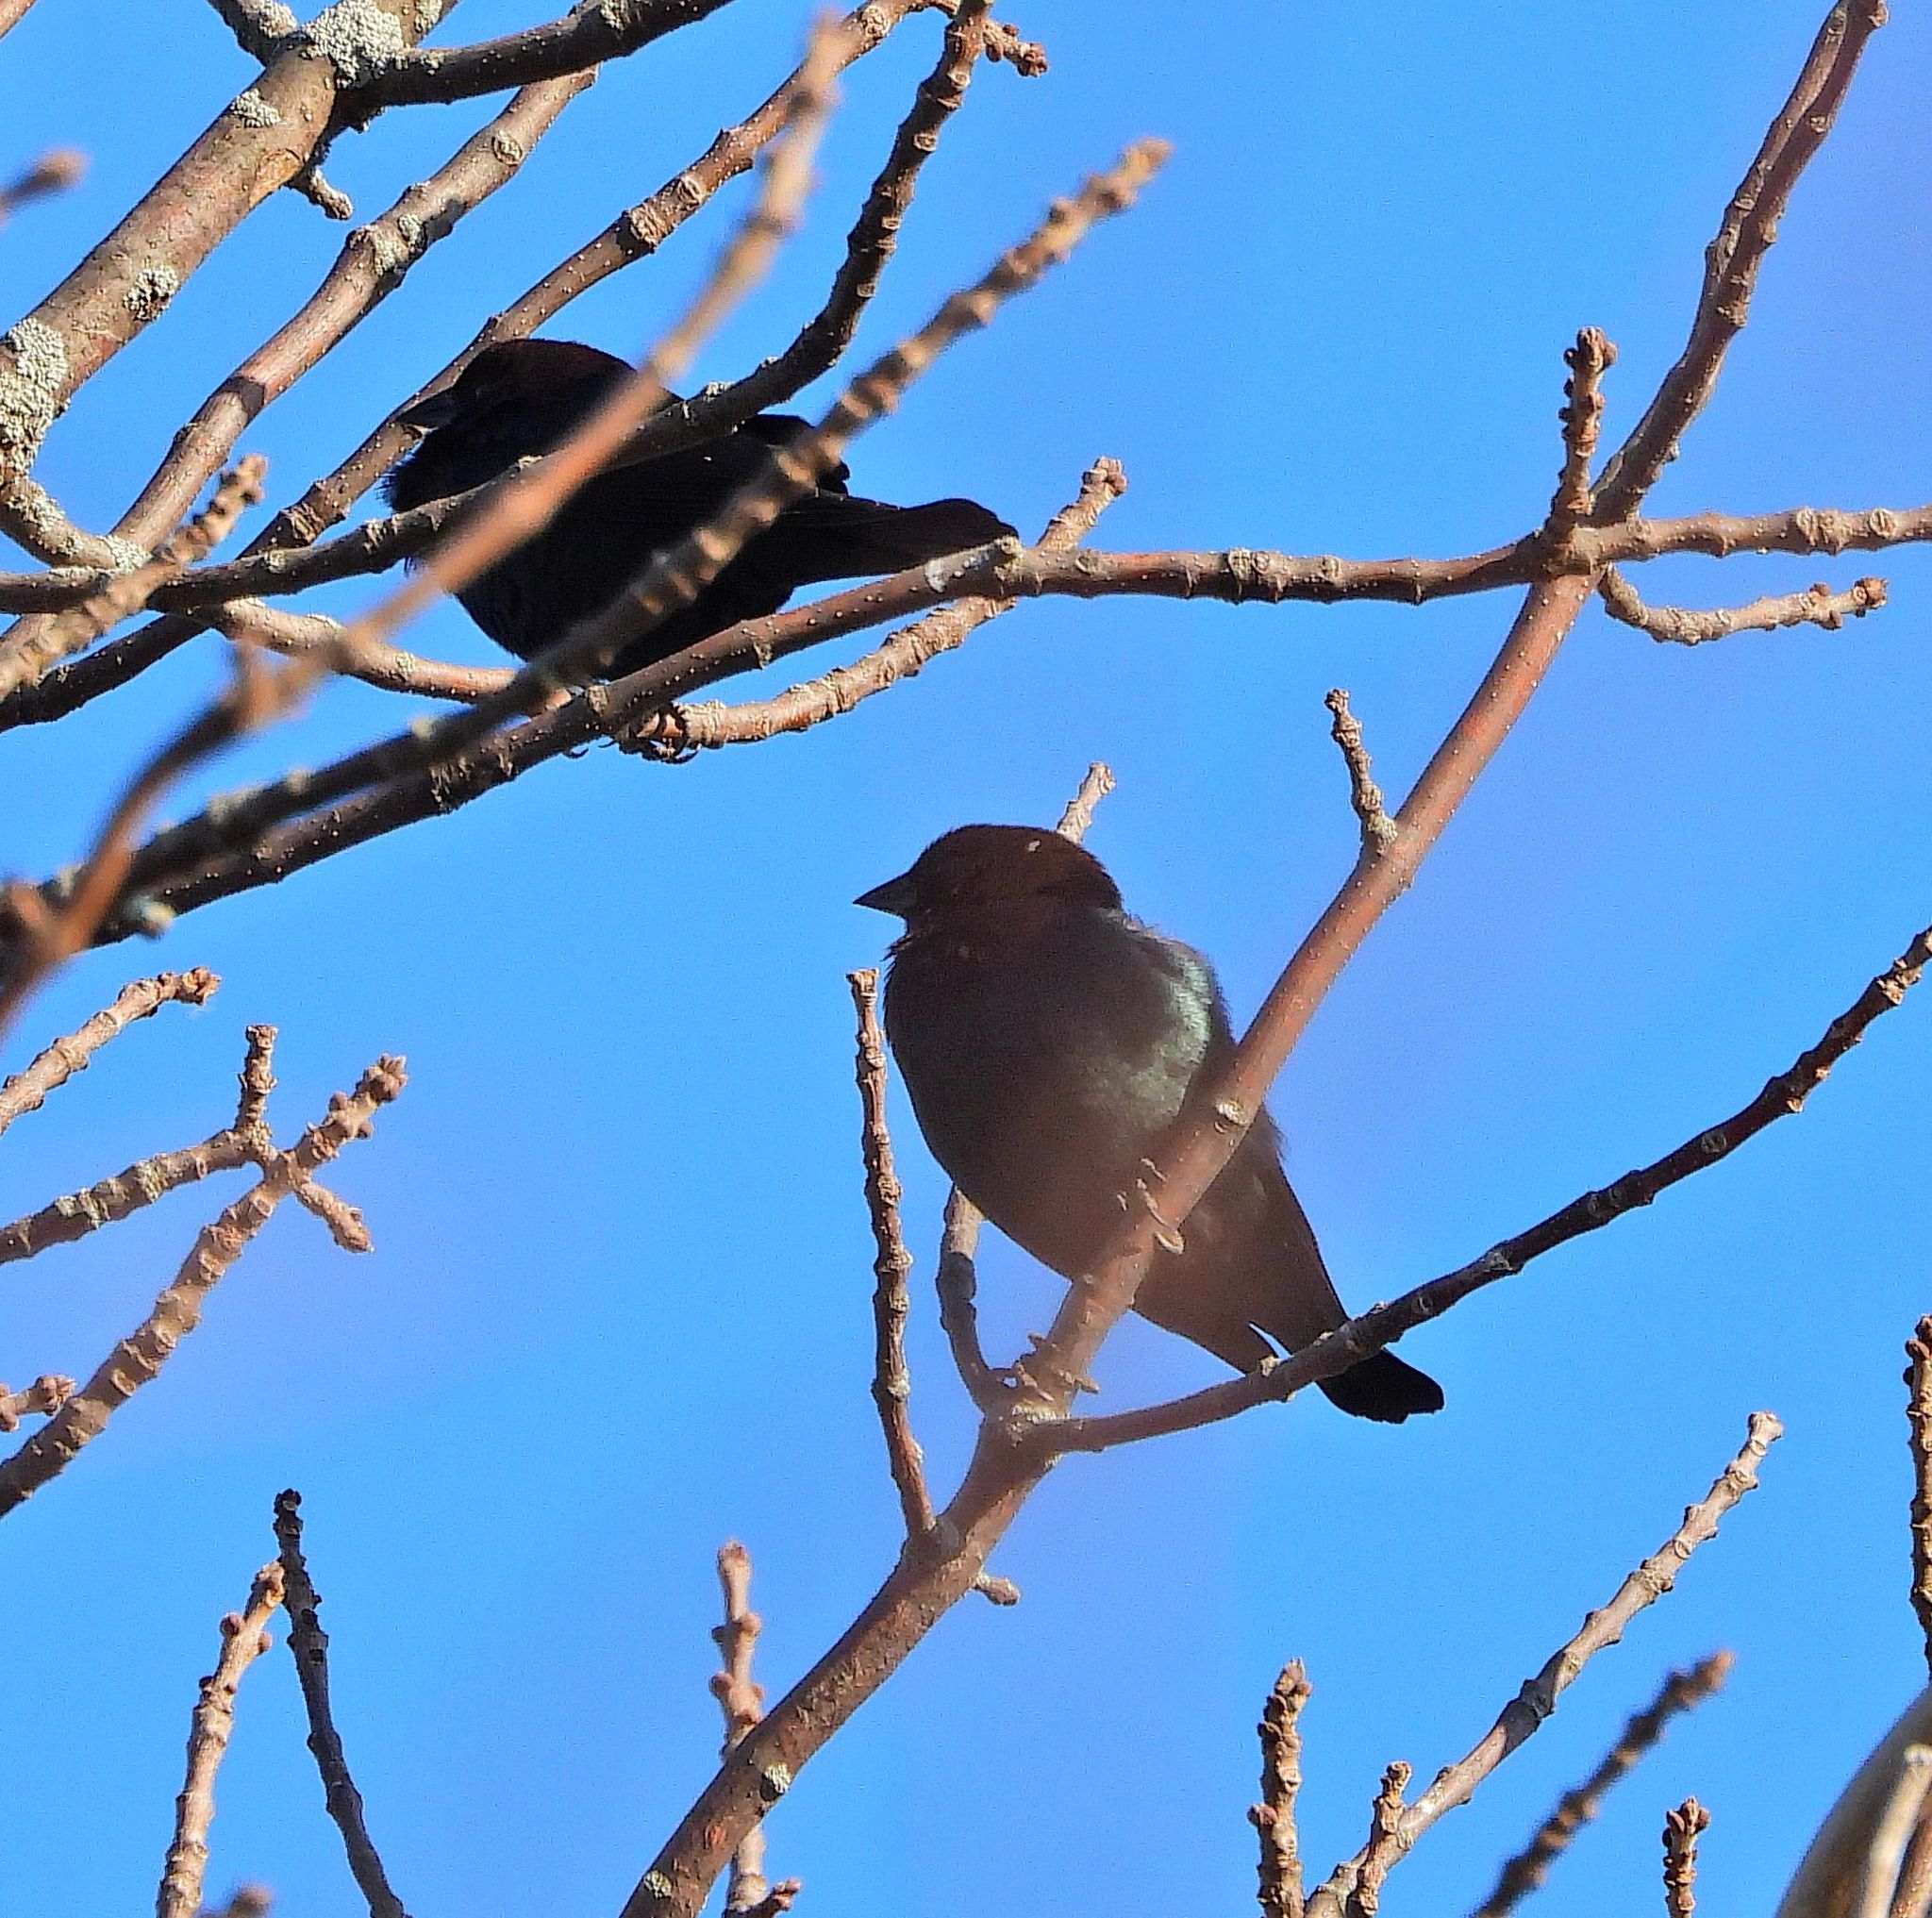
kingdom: Animalia
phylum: Chordata
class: Aves
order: Passeriformes
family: Icteridae
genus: Molothrus
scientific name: Molothrus ater
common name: Brown-headed cowbird
